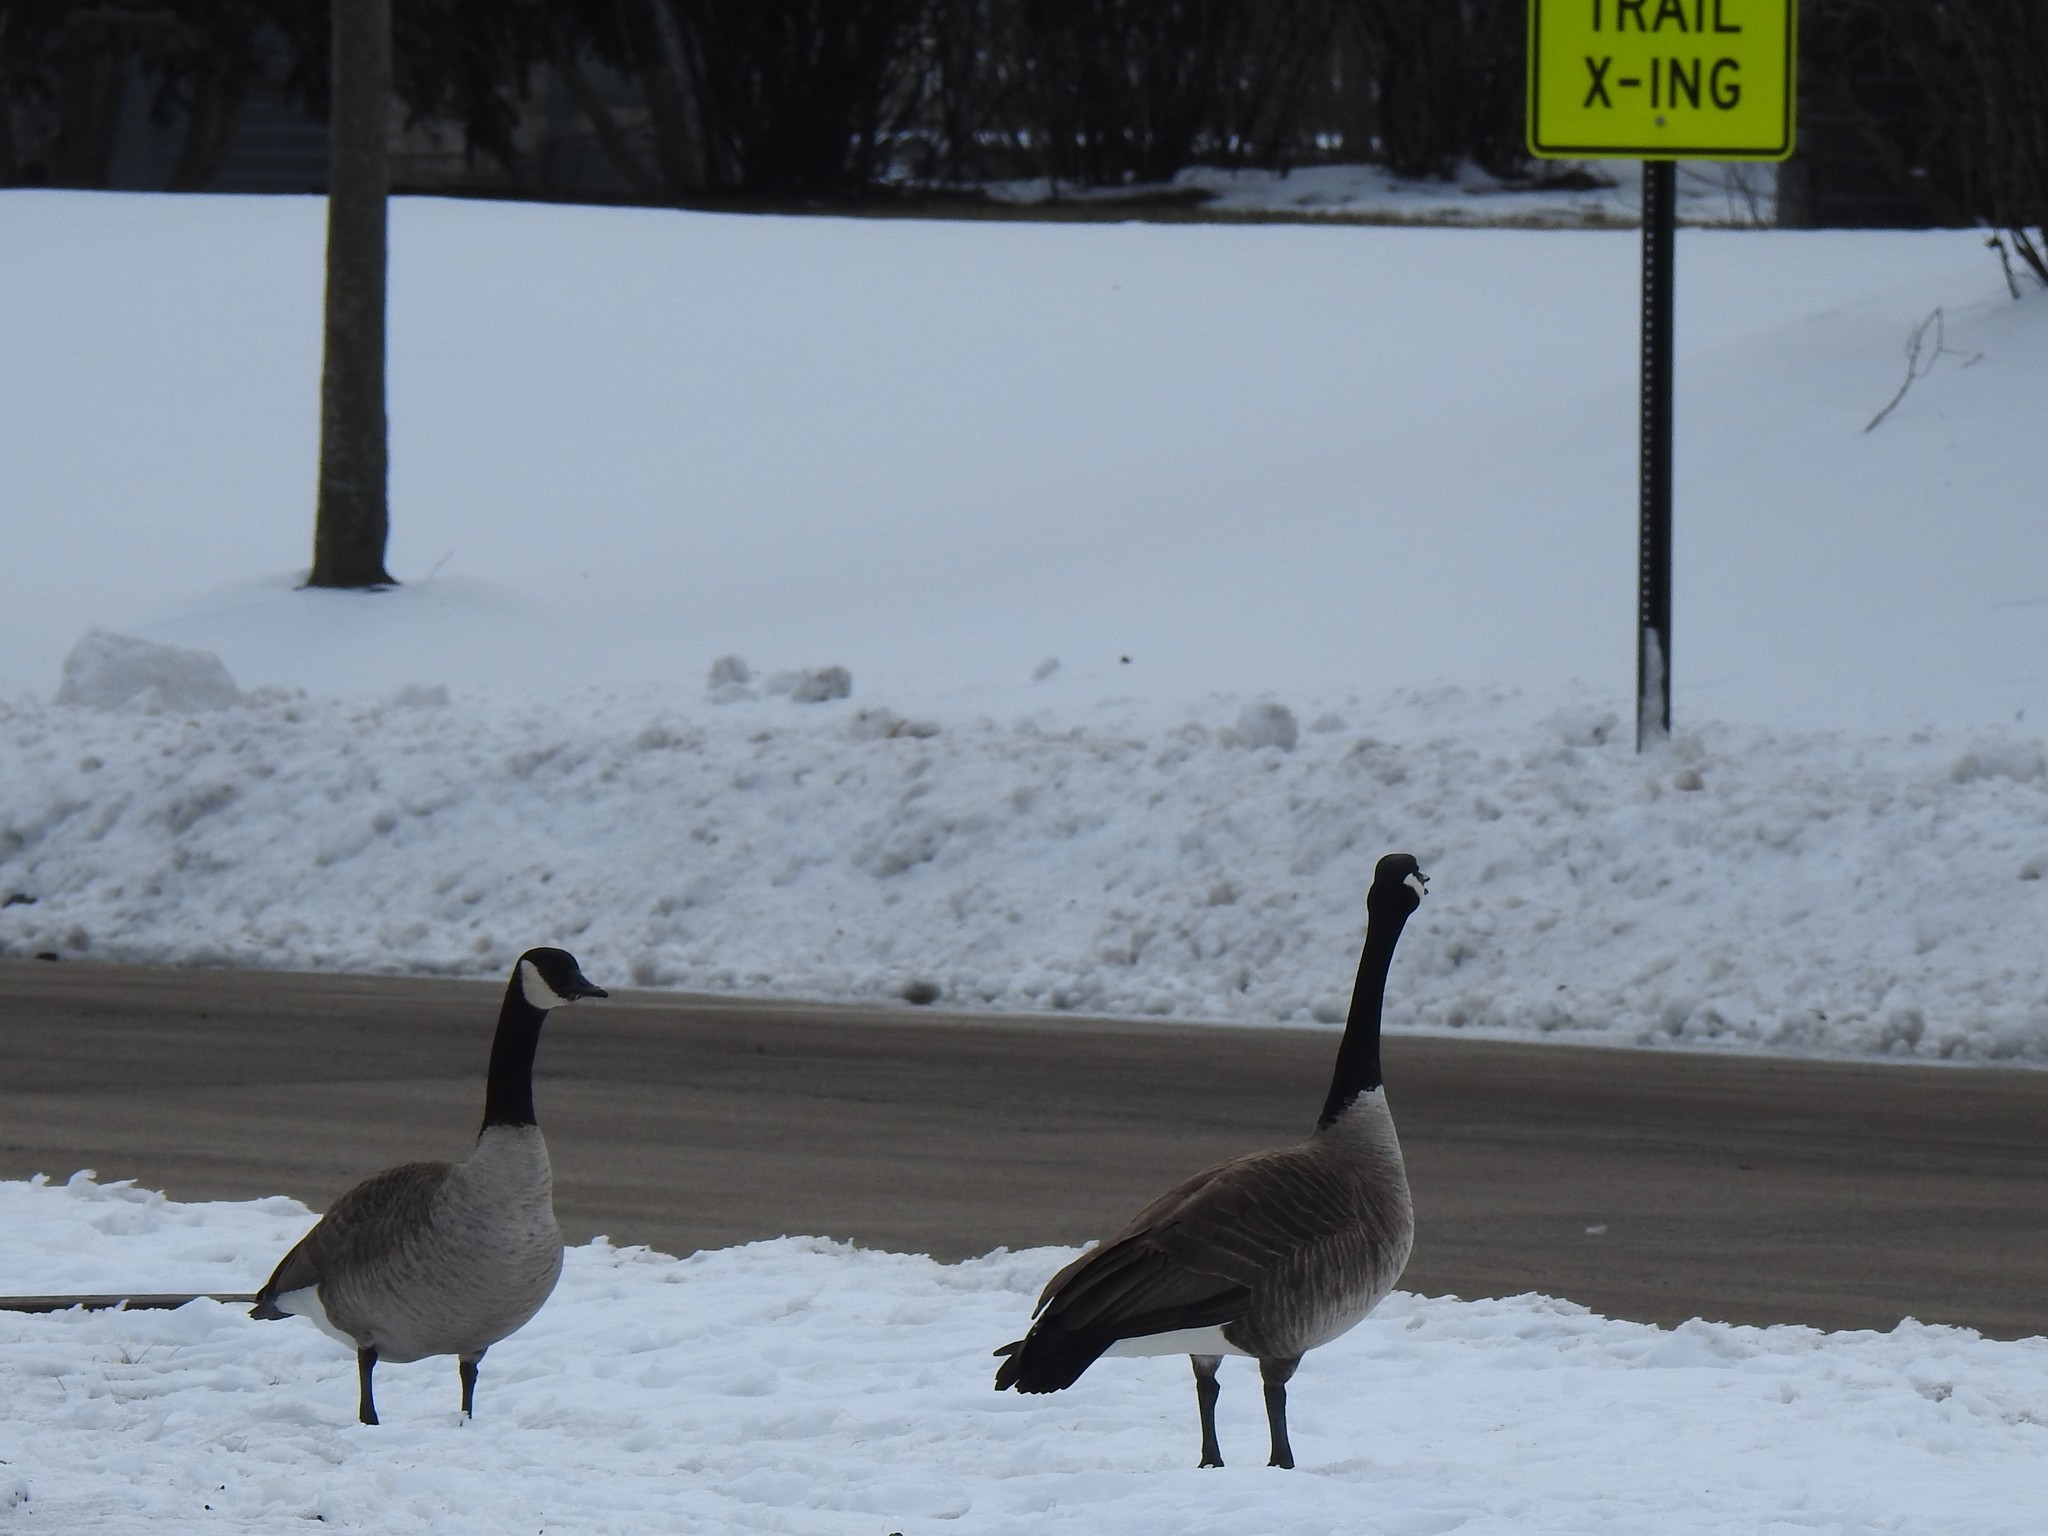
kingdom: Animalia
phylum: Chordata
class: Aves
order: Anseriformes
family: Anatidae
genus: Branta
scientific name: Branta canadensis
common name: Canada goose
